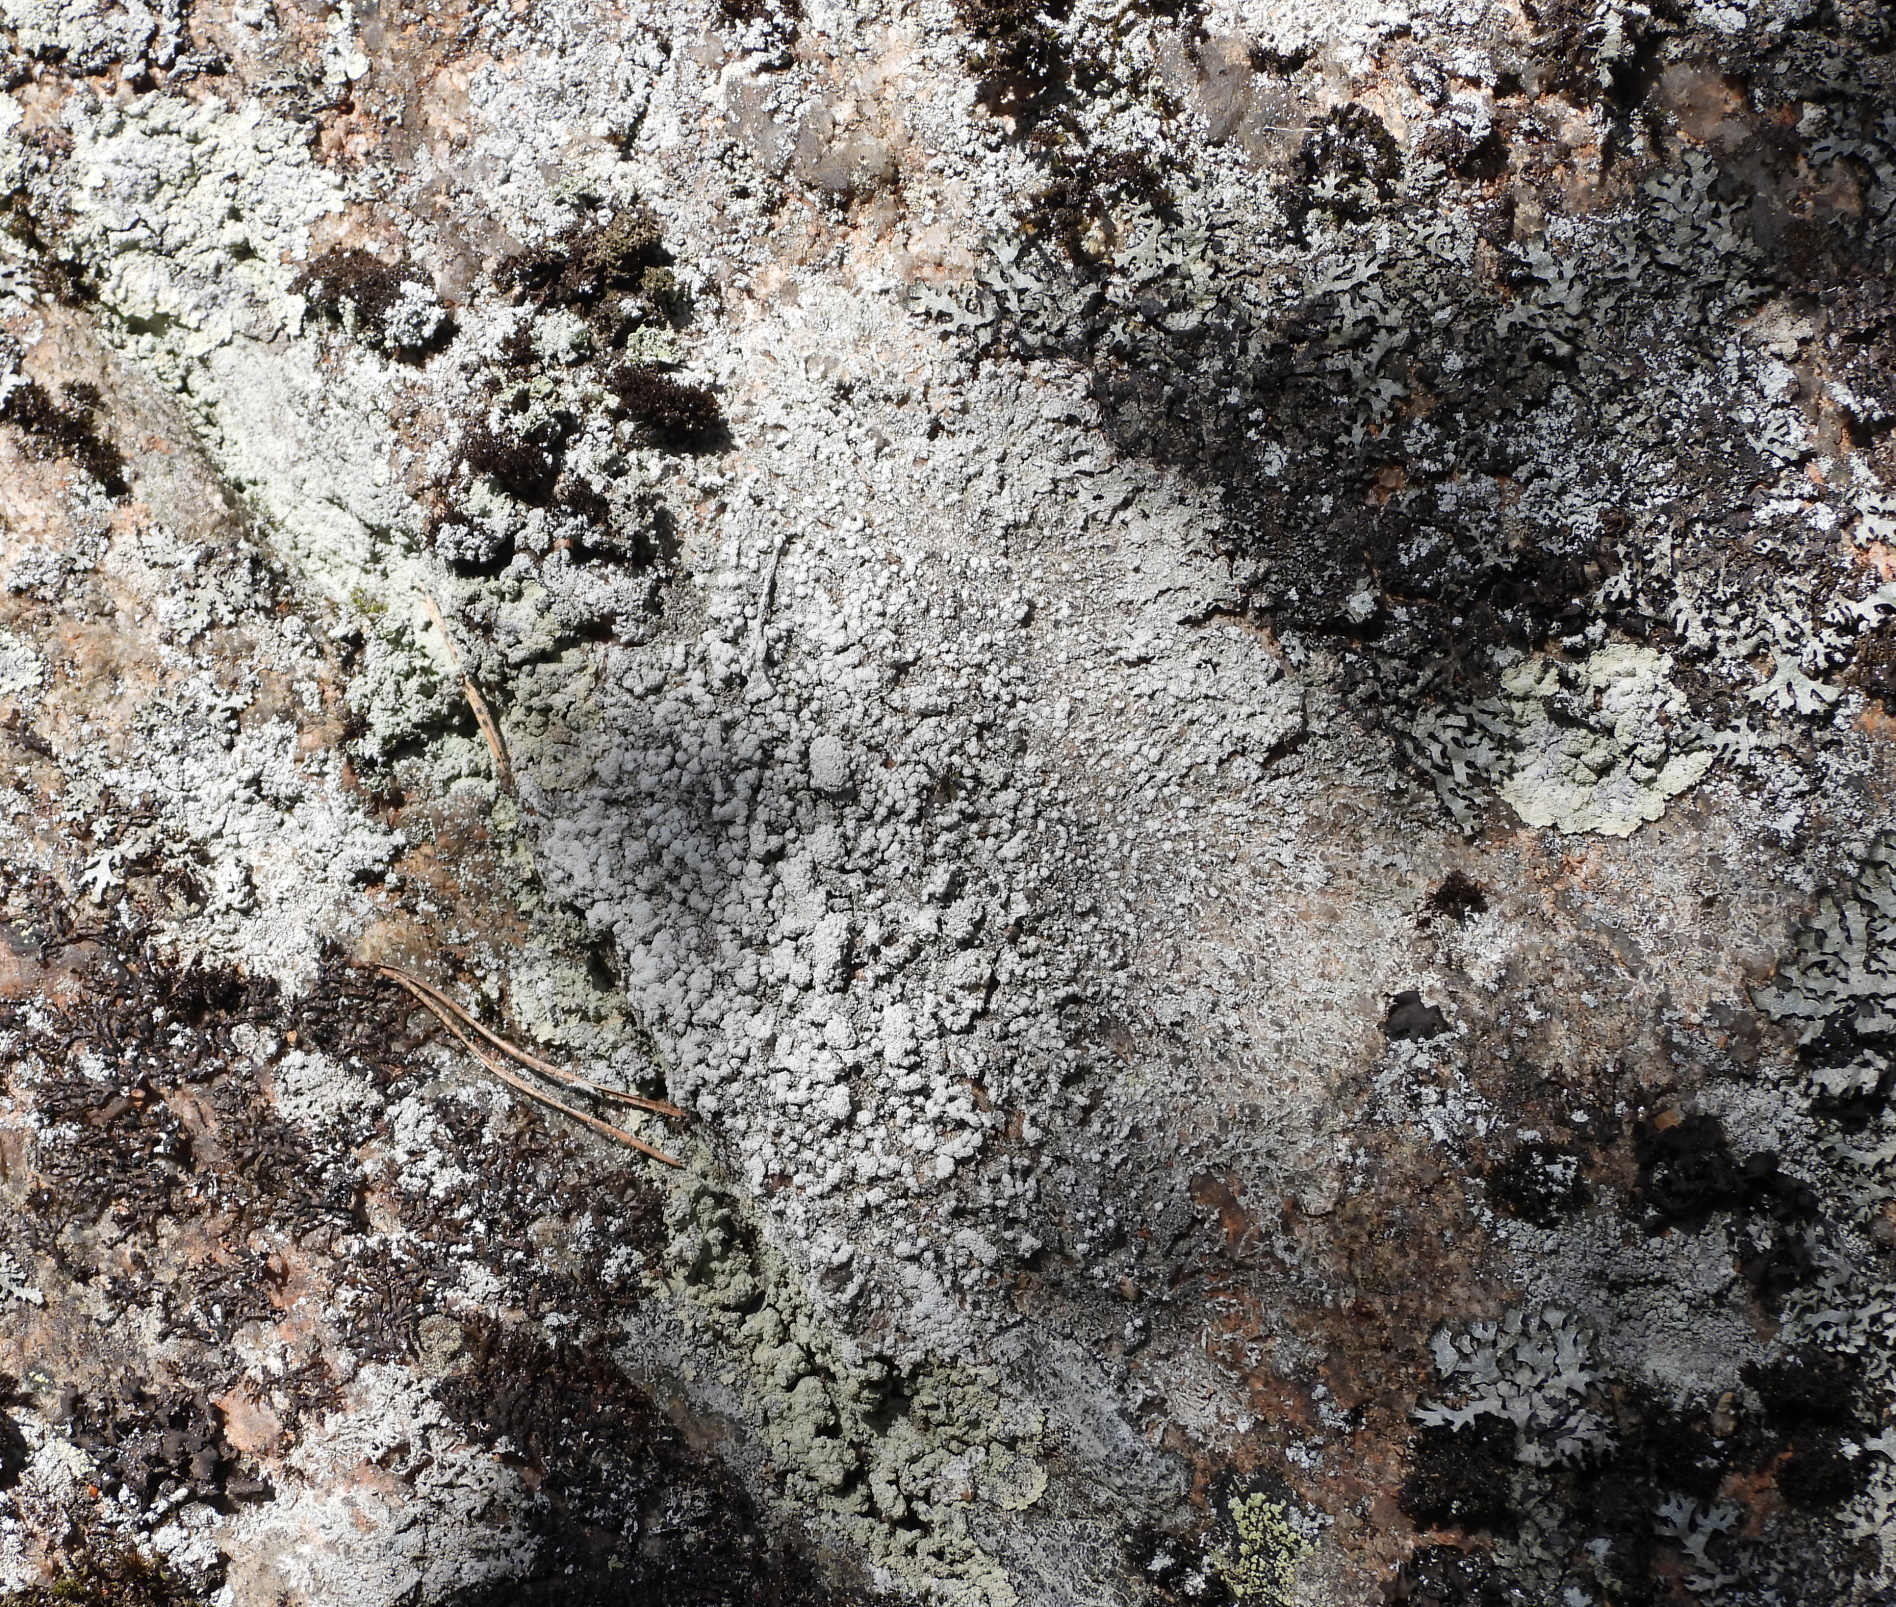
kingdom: Fungi
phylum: Ascomycota
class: Lecanoromycetes
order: Pertusariales
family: Pertusariaceae
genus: Lepra
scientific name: Lepra amara
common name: Bitter wart lichen
